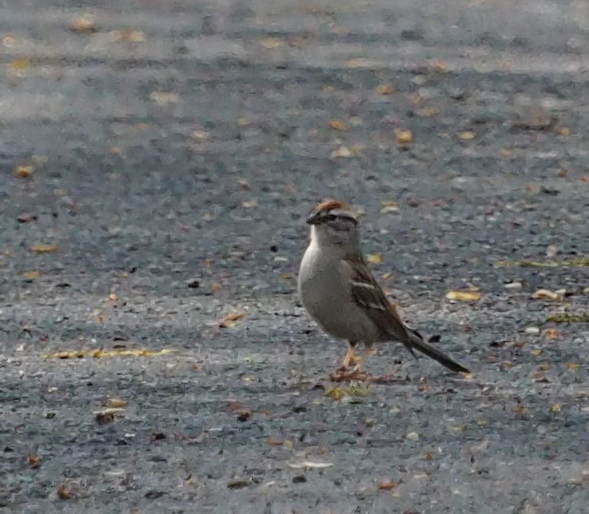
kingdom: Animalia
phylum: Chordata
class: Aves
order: Passeriformes
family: Passerellidae
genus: Spizella
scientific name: Spizella passerina
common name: Chipping sparrow
